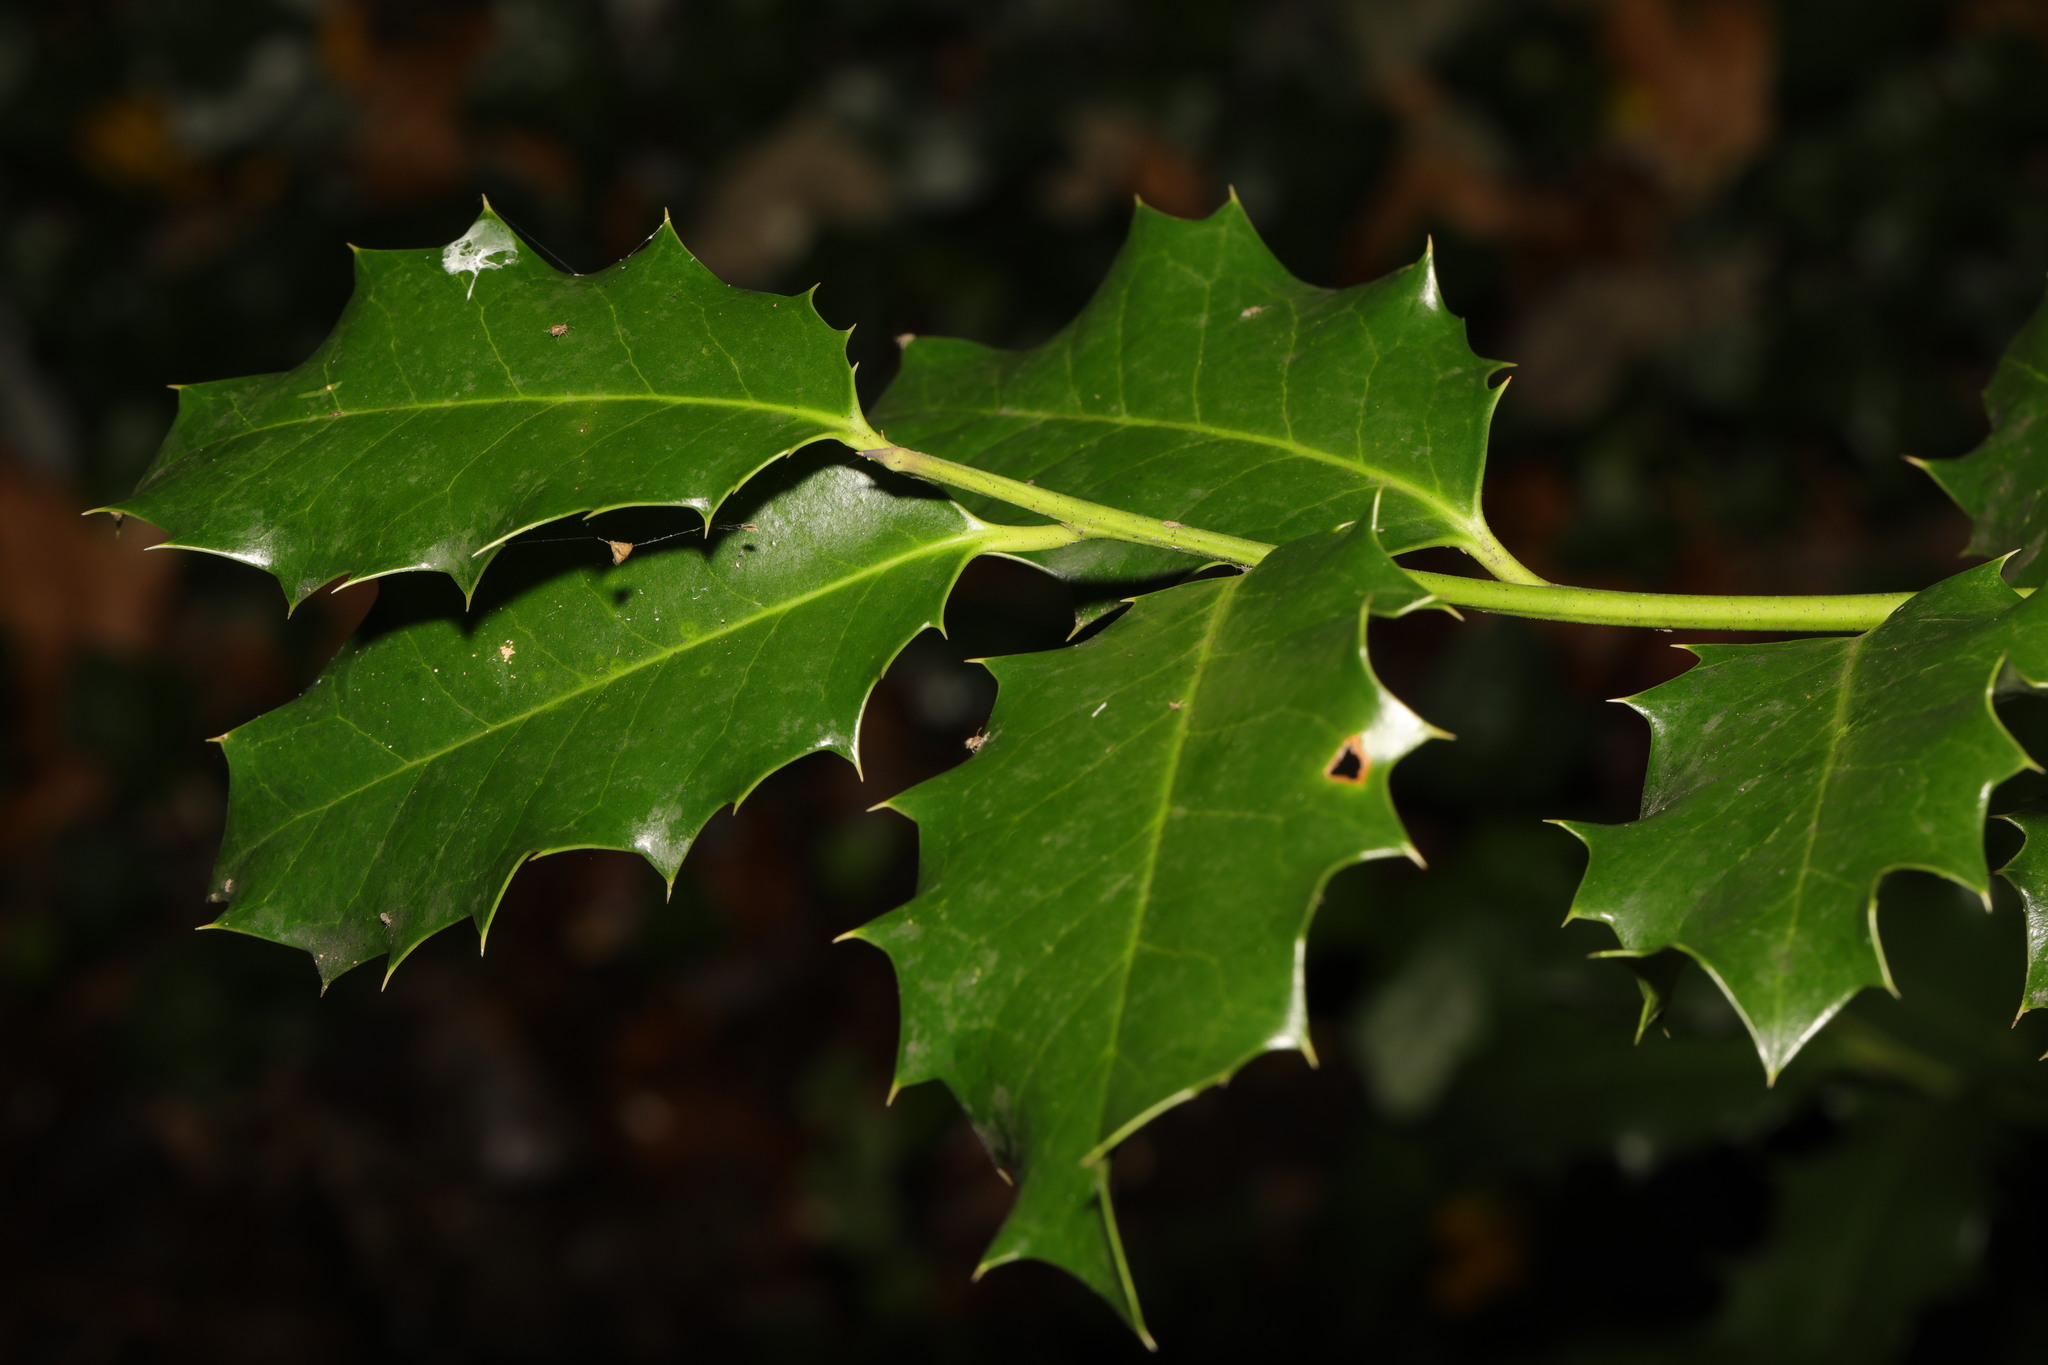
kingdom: Plantae
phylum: Tracheophyta
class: Magnoliopsida
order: Aquifoliales
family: Aquifoliaceae
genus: Ilex
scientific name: Ilex aquifolium
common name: English holly
